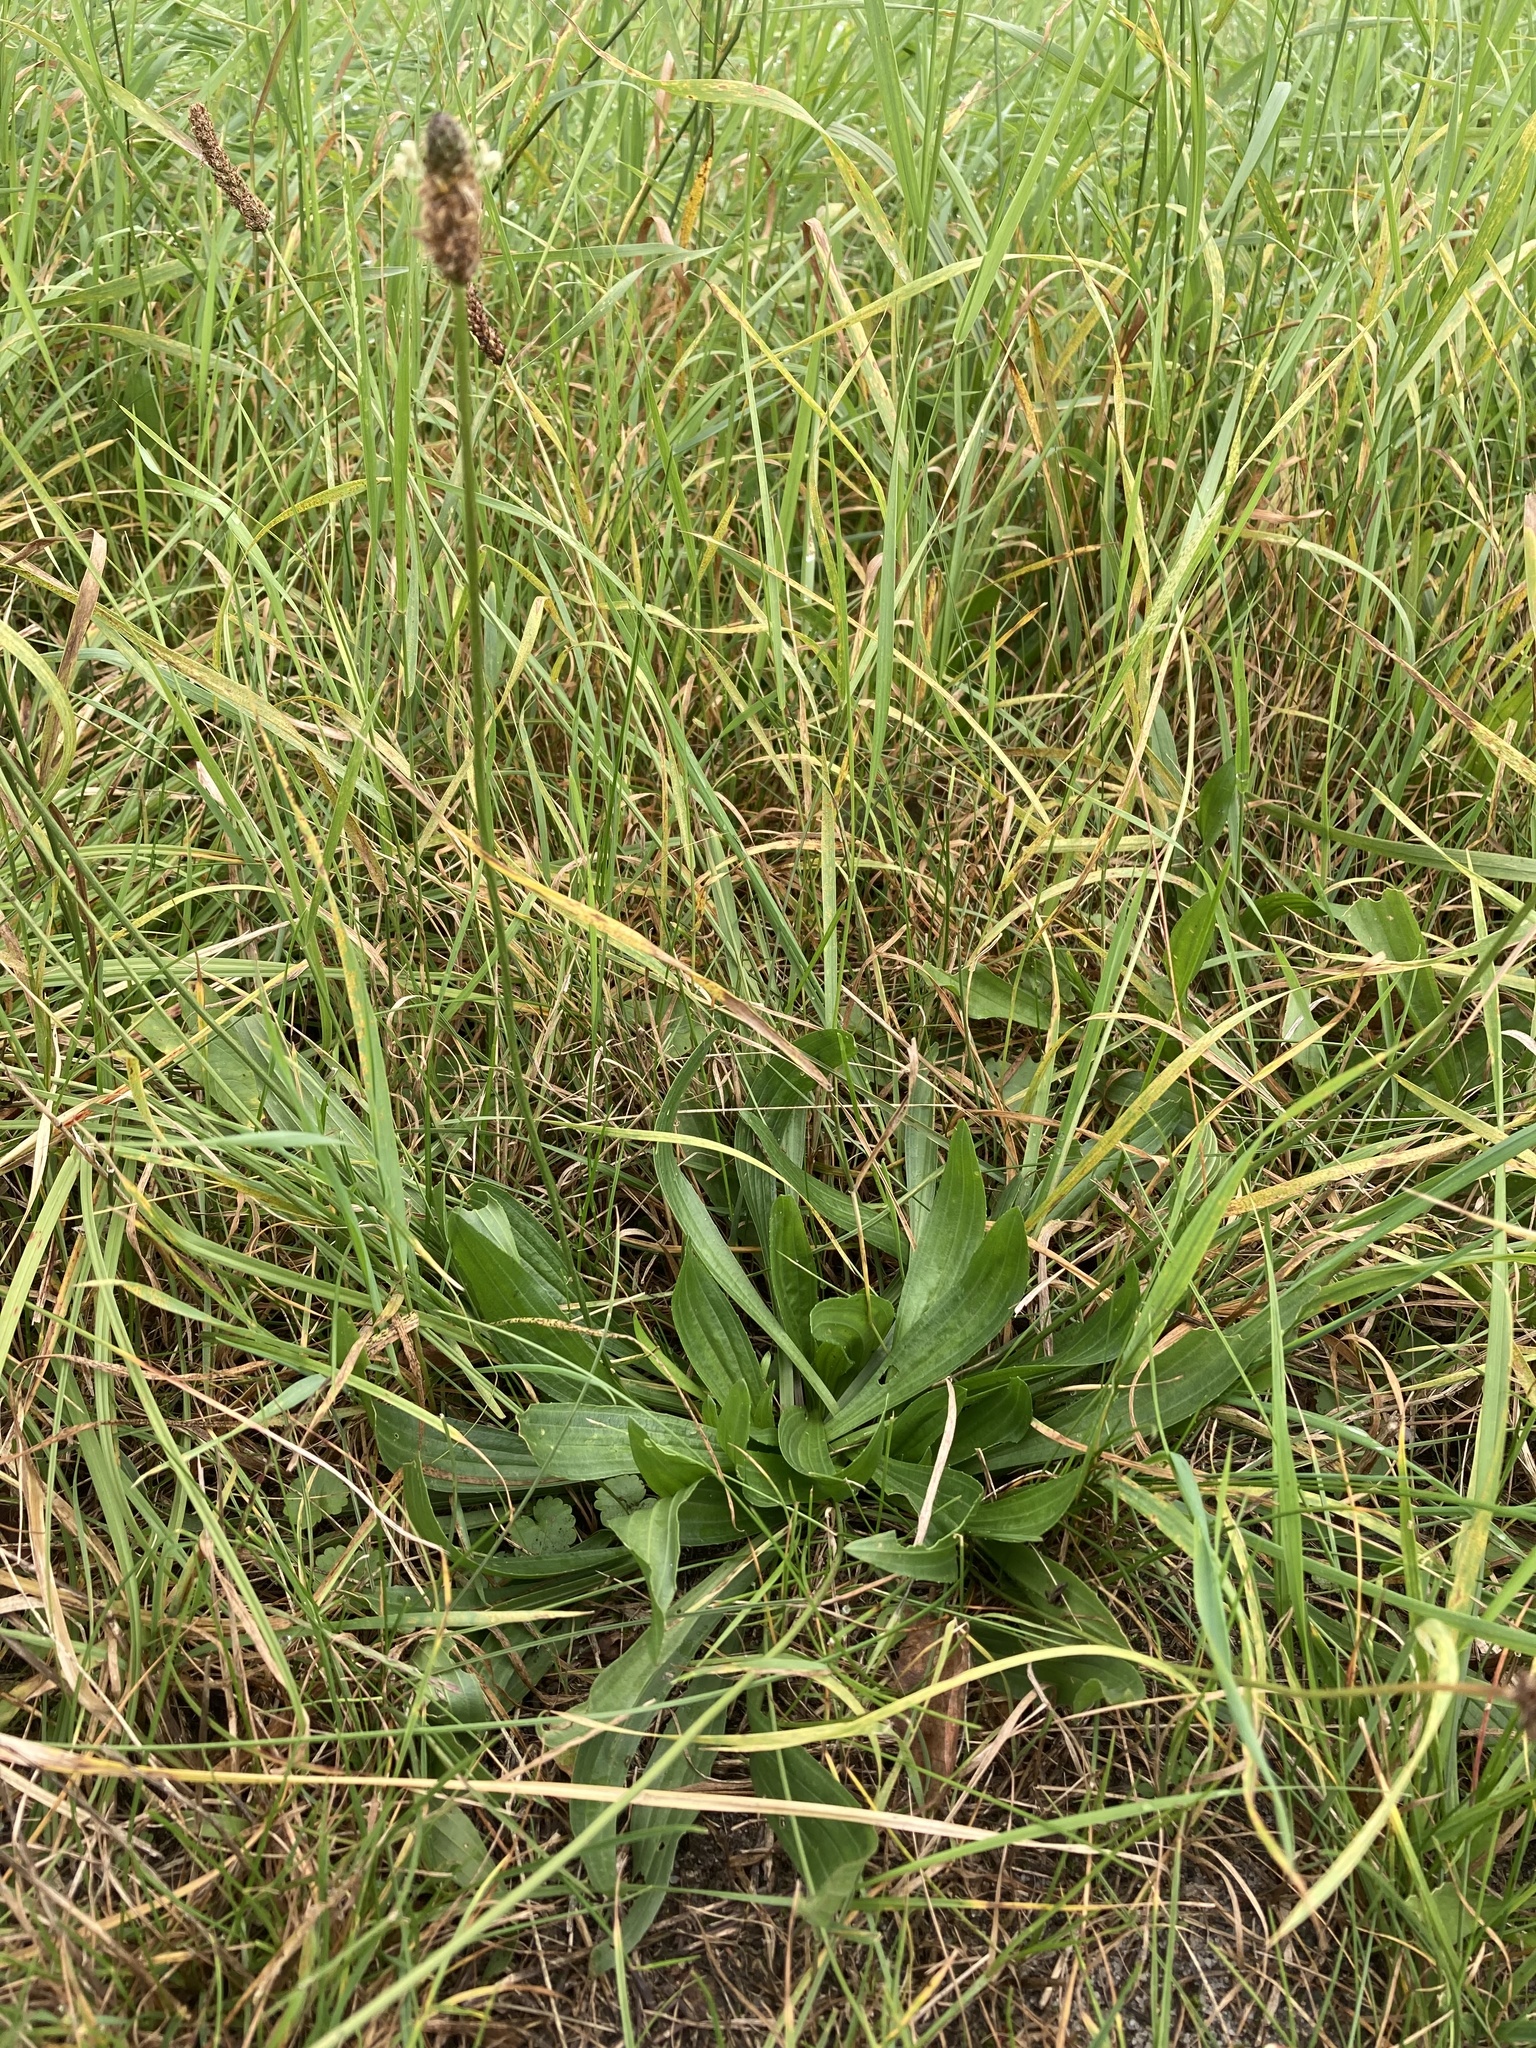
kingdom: Plantae
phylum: Tracheophyta
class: Magnoliopsida
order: Lamiales
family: Plantaginaceae
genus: Plantago
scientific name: Plantago lanceolata
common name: Ribwort plantain
